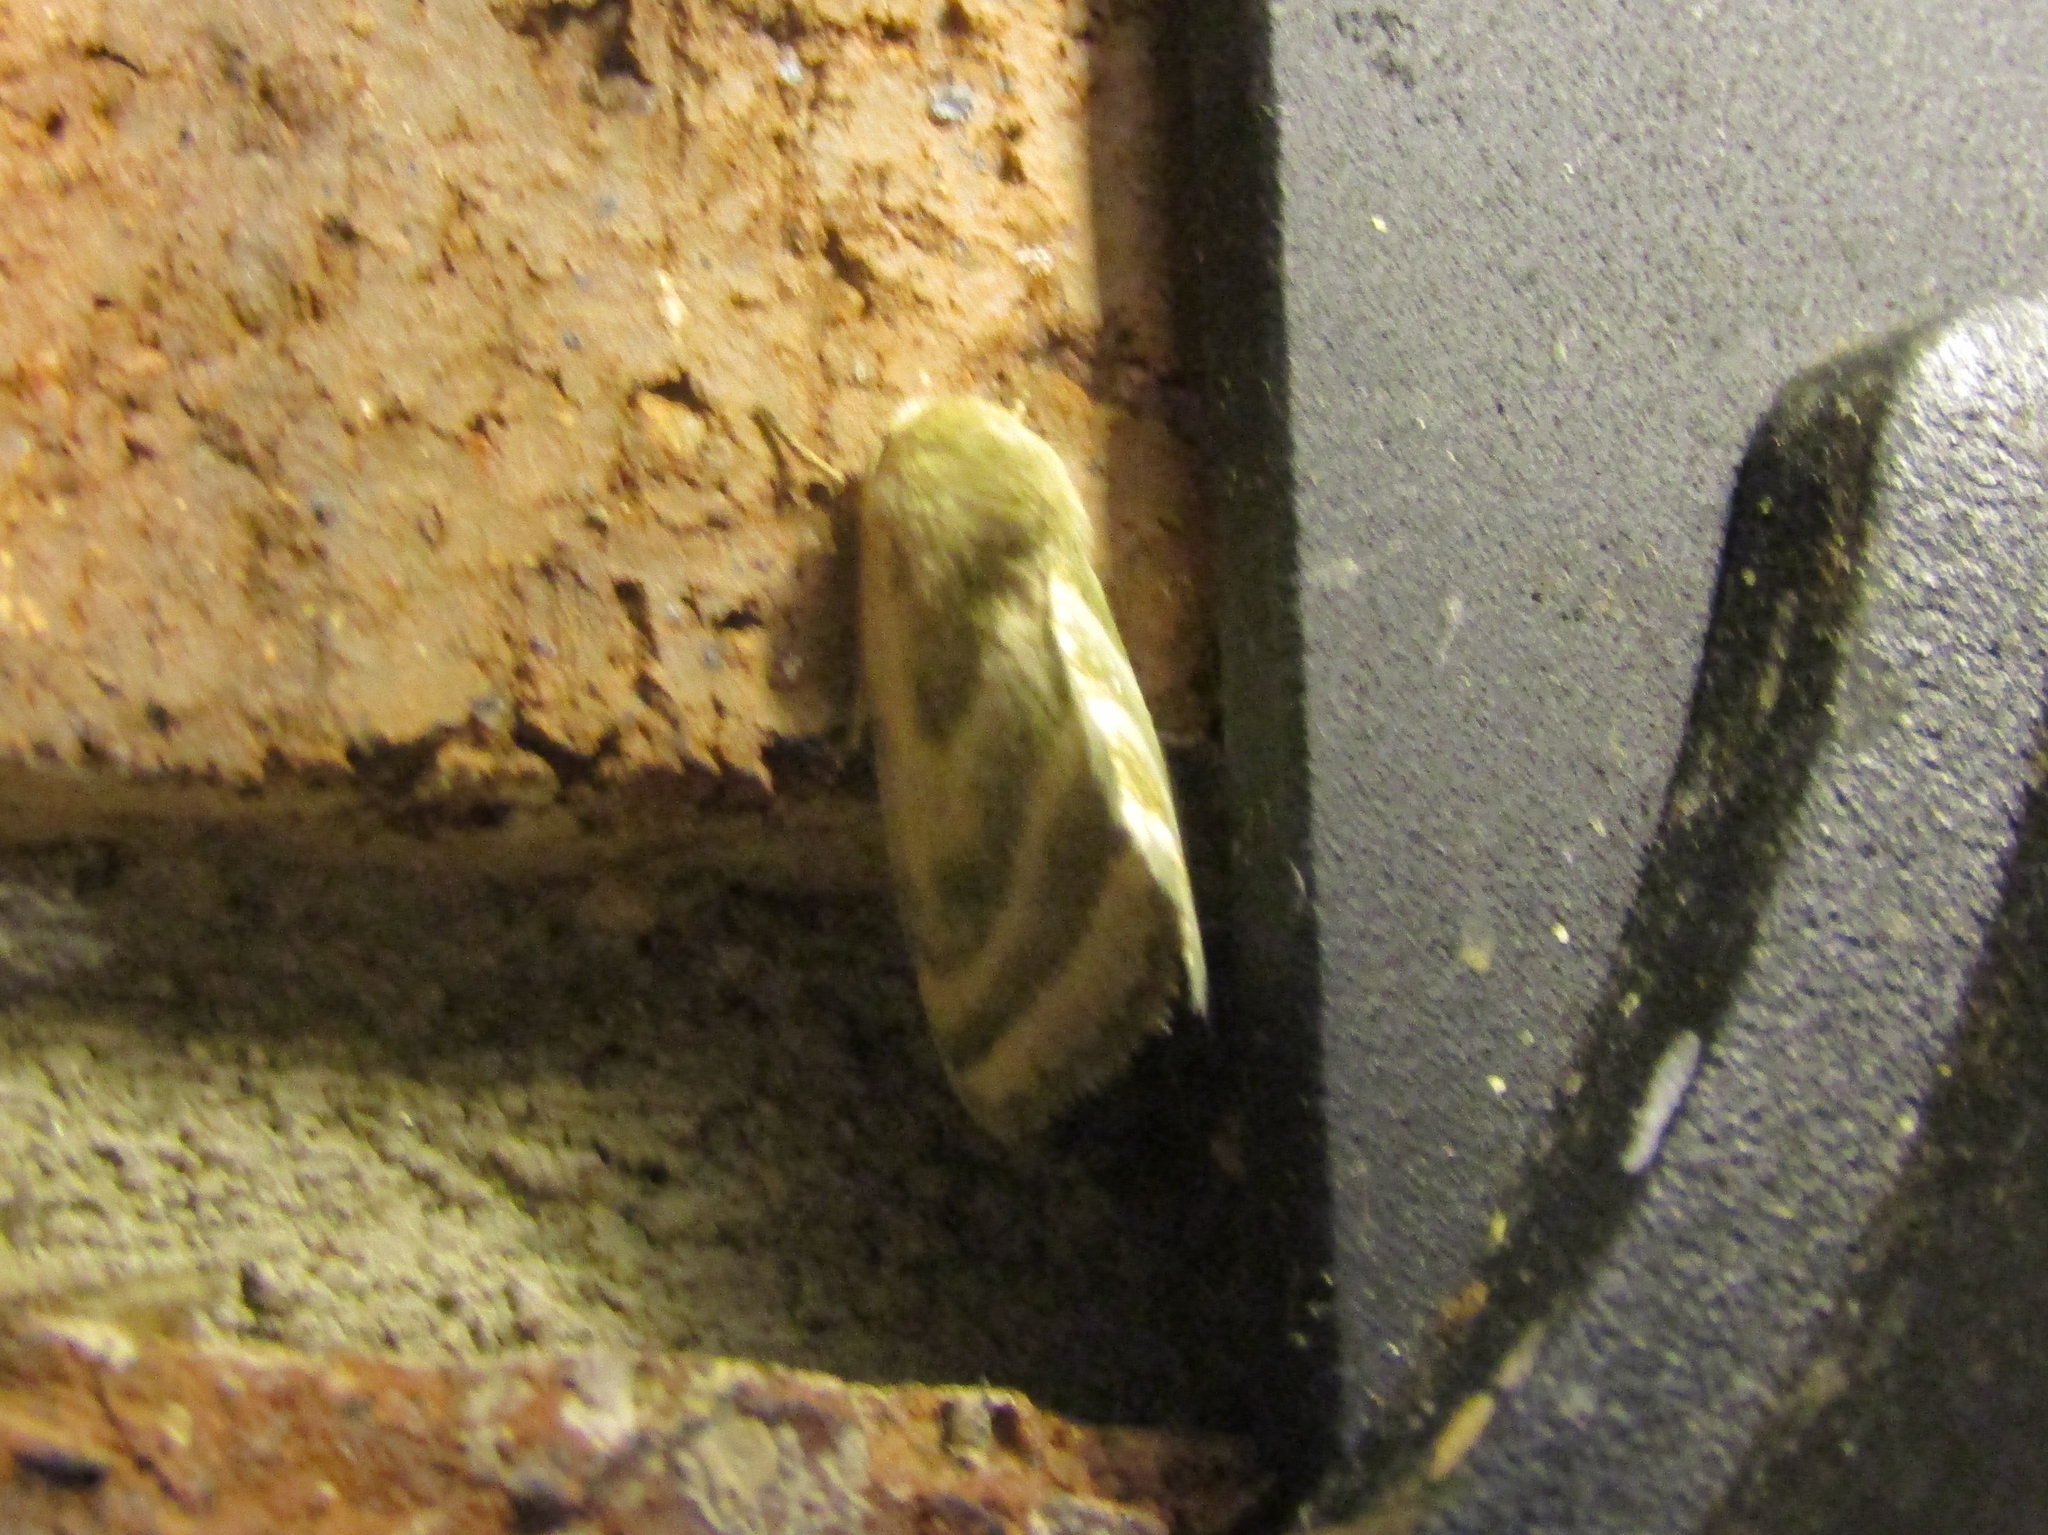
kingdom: Animalia
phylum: Arthropoda
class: Insecta
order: Lepidoptera
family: Noctuidae
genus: Schinia
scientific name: Schinia trifascia
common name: Three-lined flower moth
